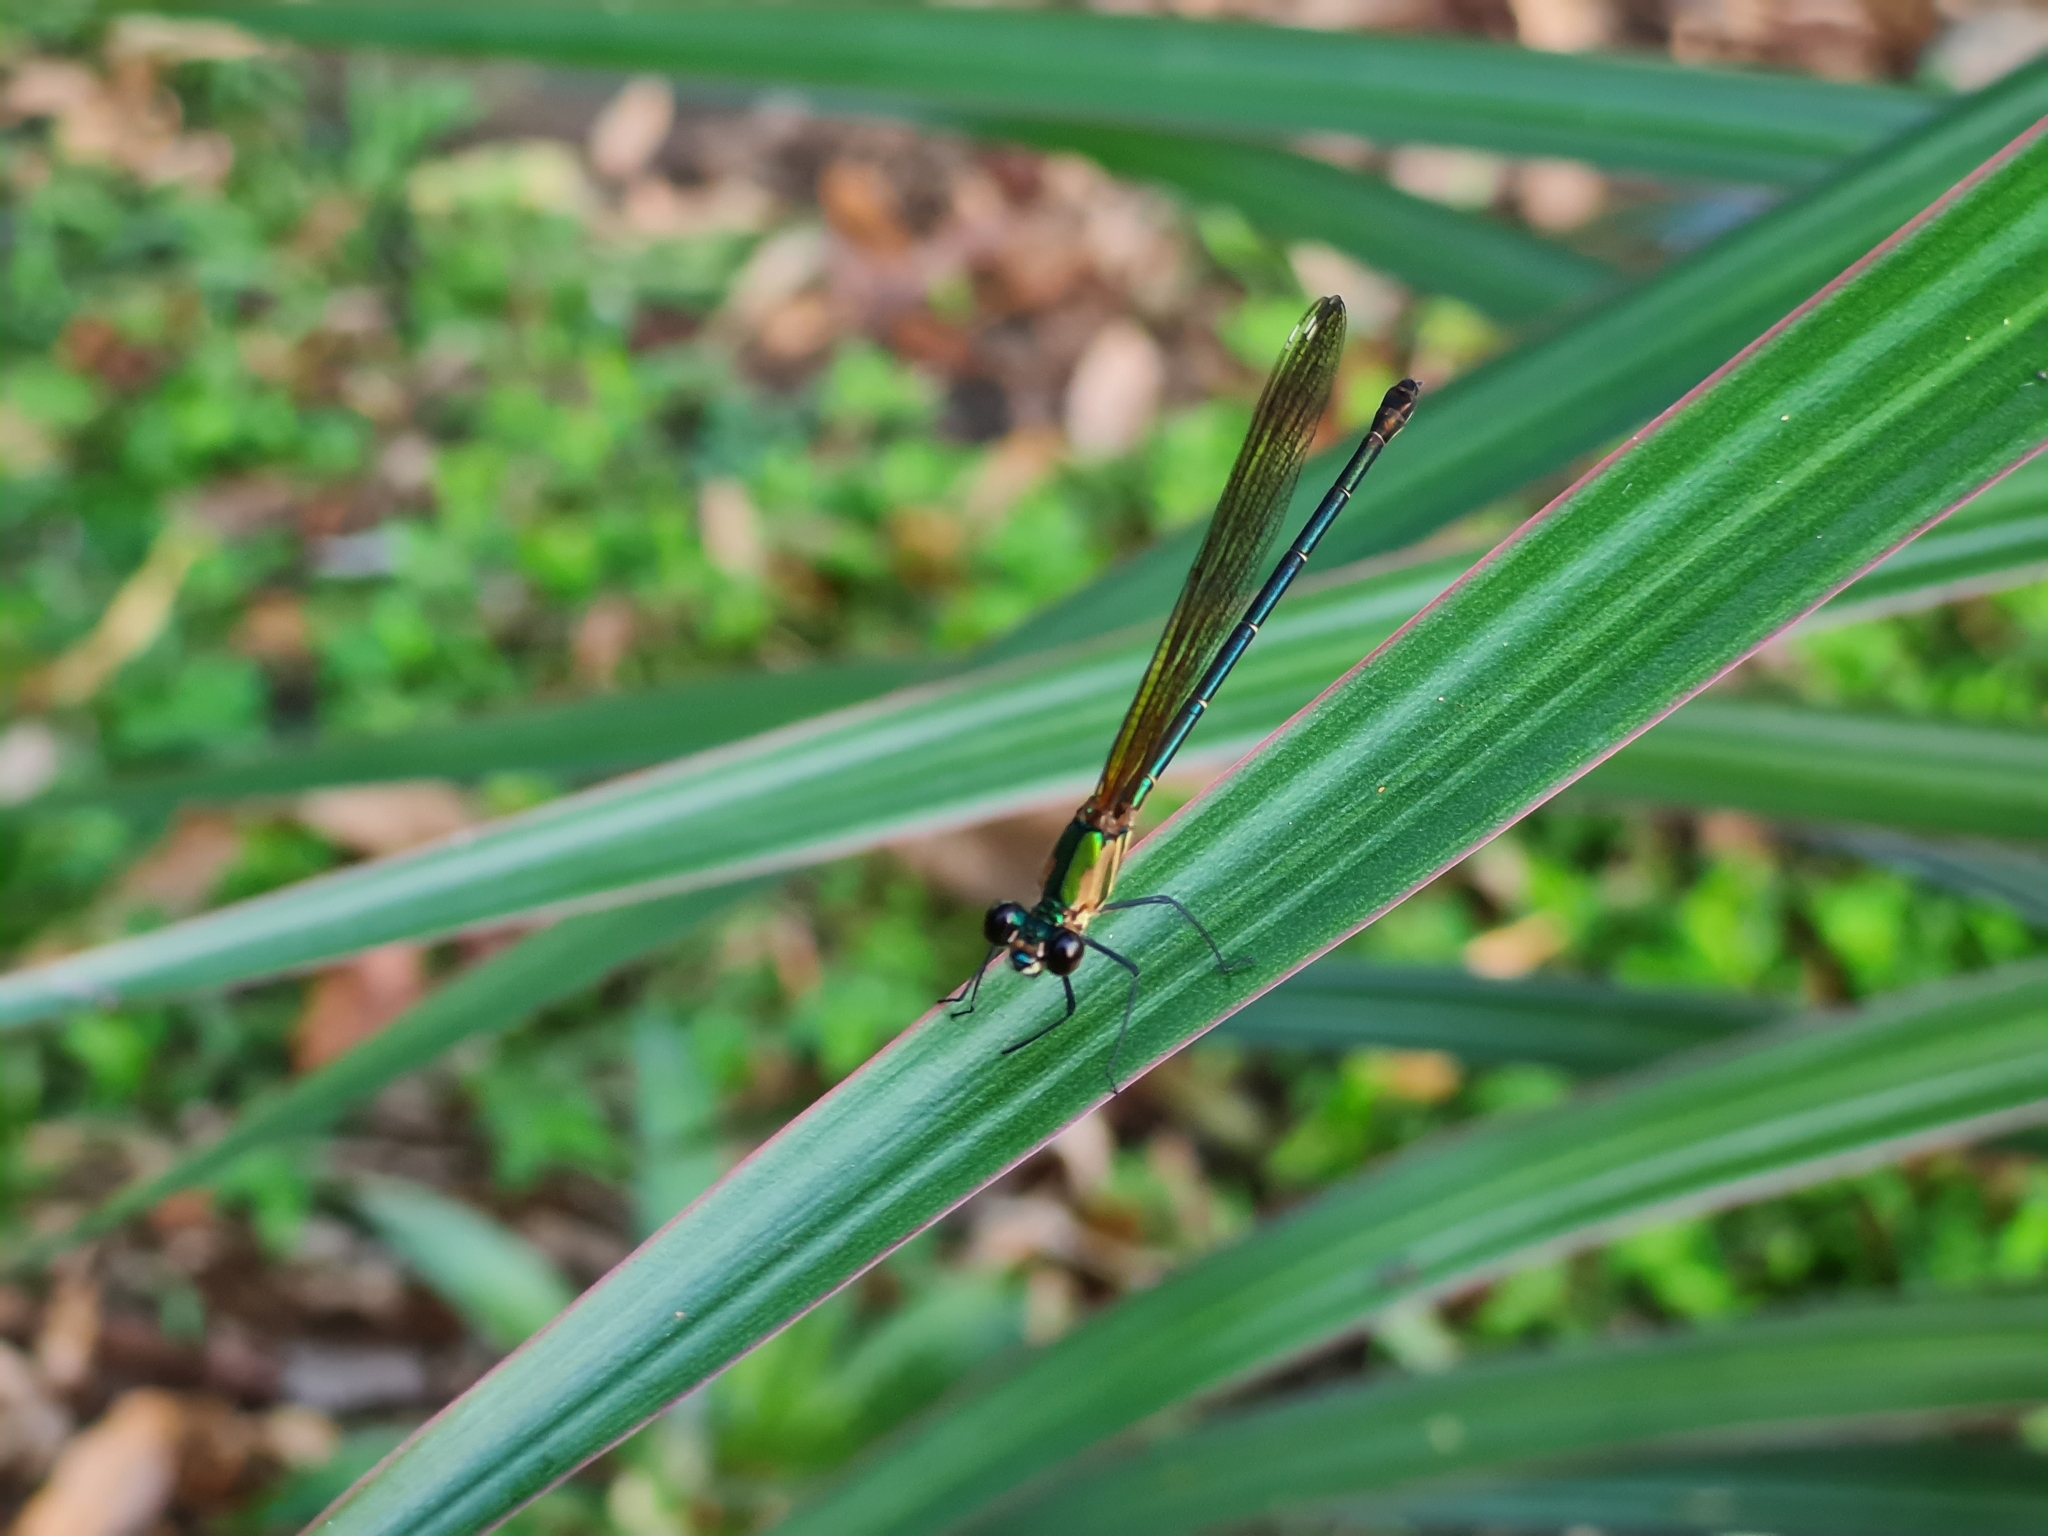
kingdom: Animalia
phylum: Arthropoda
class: Insecta
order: Odonata
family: Calopterygidae
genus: Hetaerina
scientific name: Hetaerina occisa
